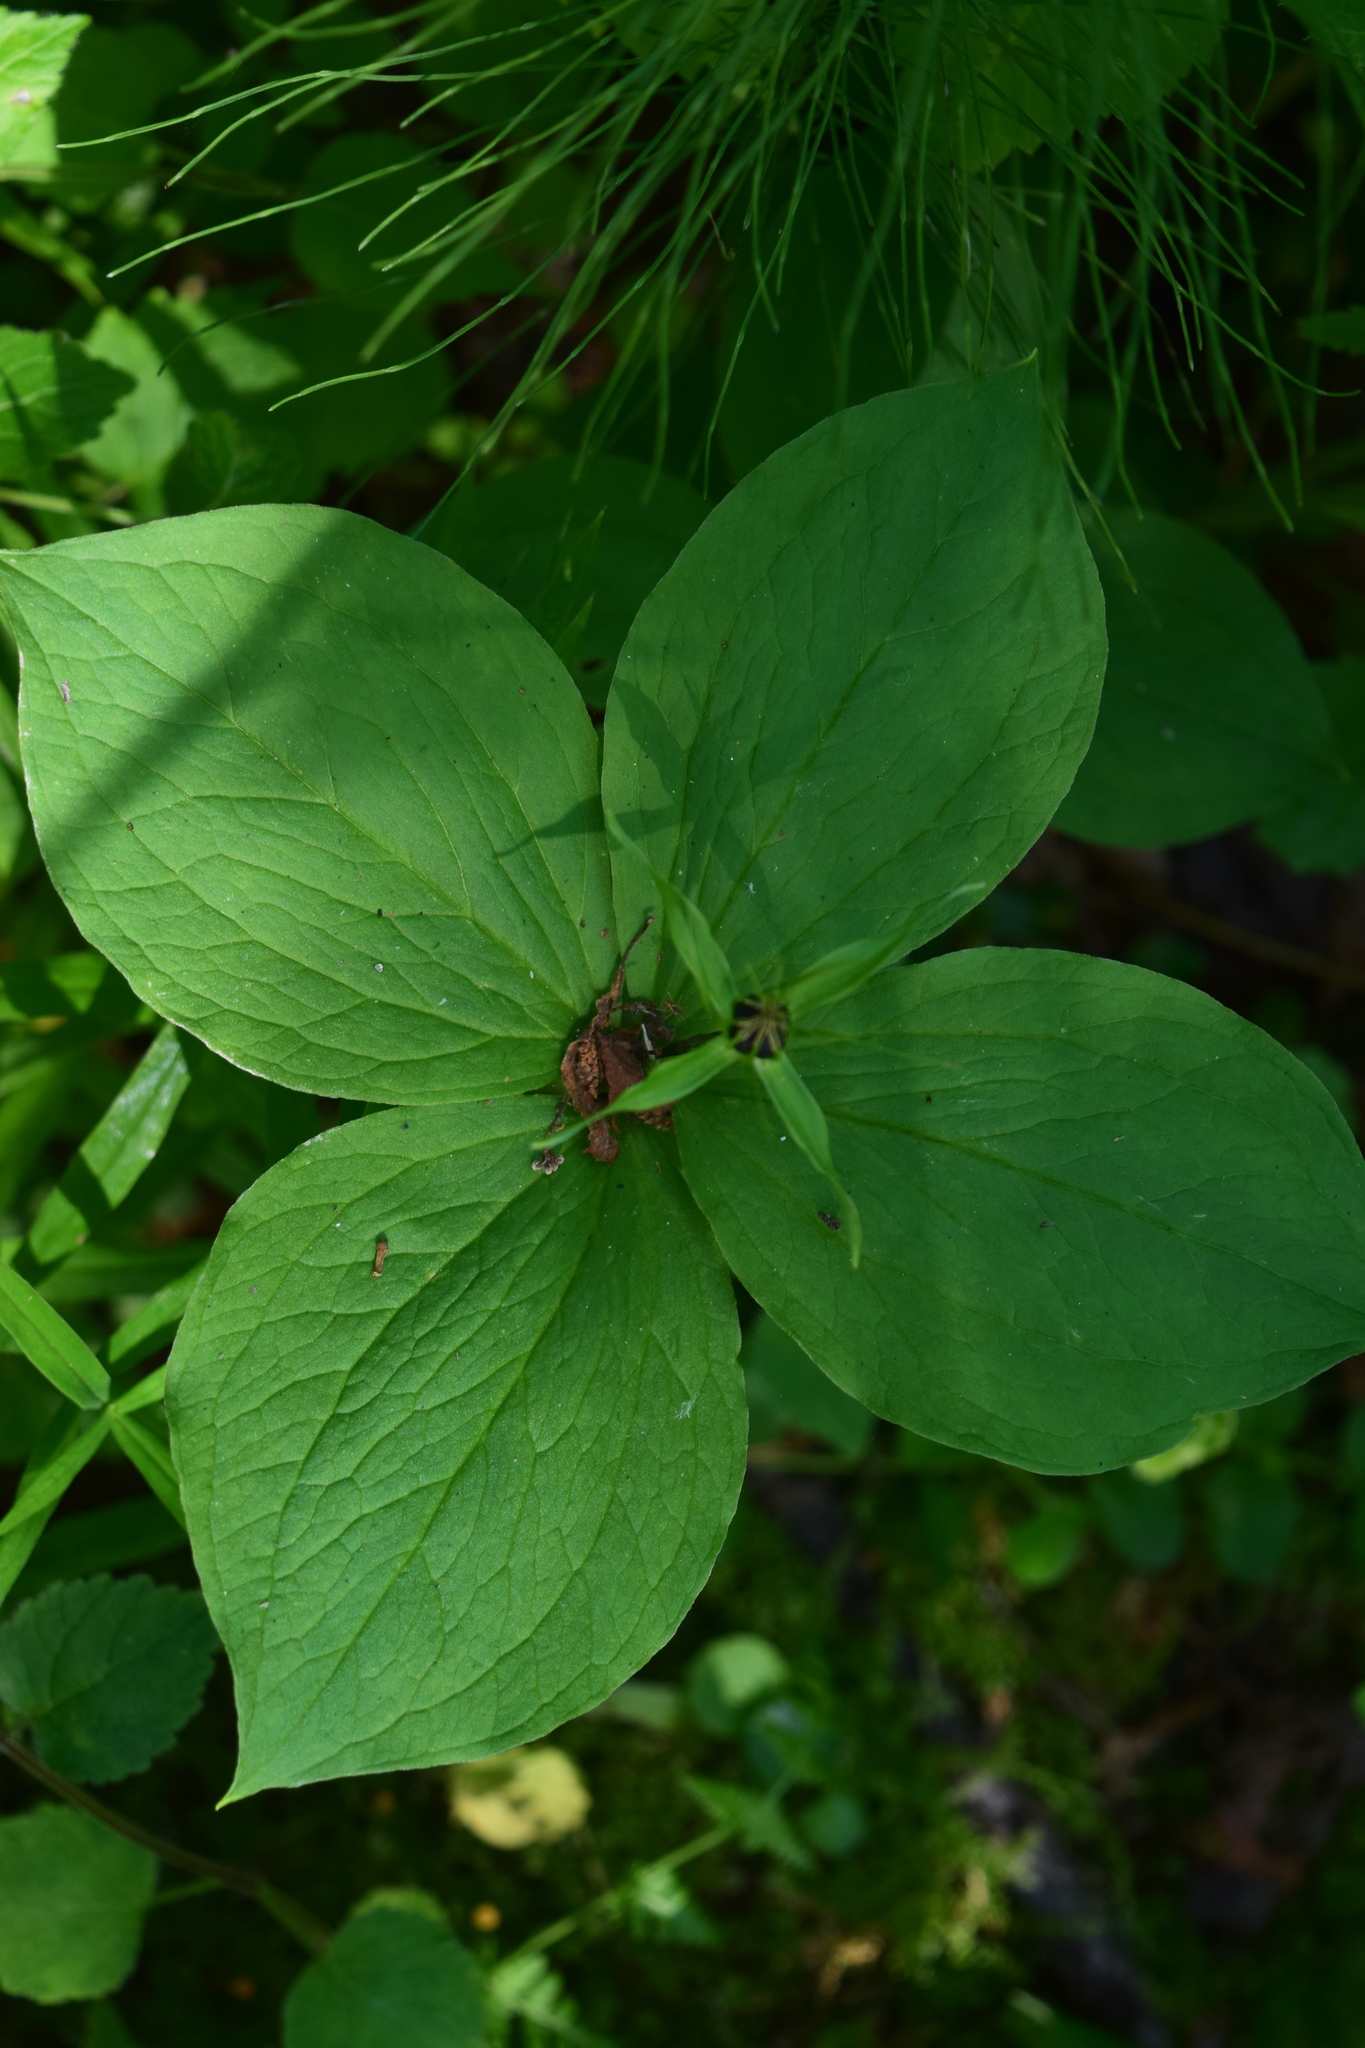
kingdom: Plantae
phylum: Tracheophyta
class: Liliopsida
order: Liliales
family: Melanthiaceae
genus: Paris
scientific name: Paris quadrifolia
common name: Herb-paris
